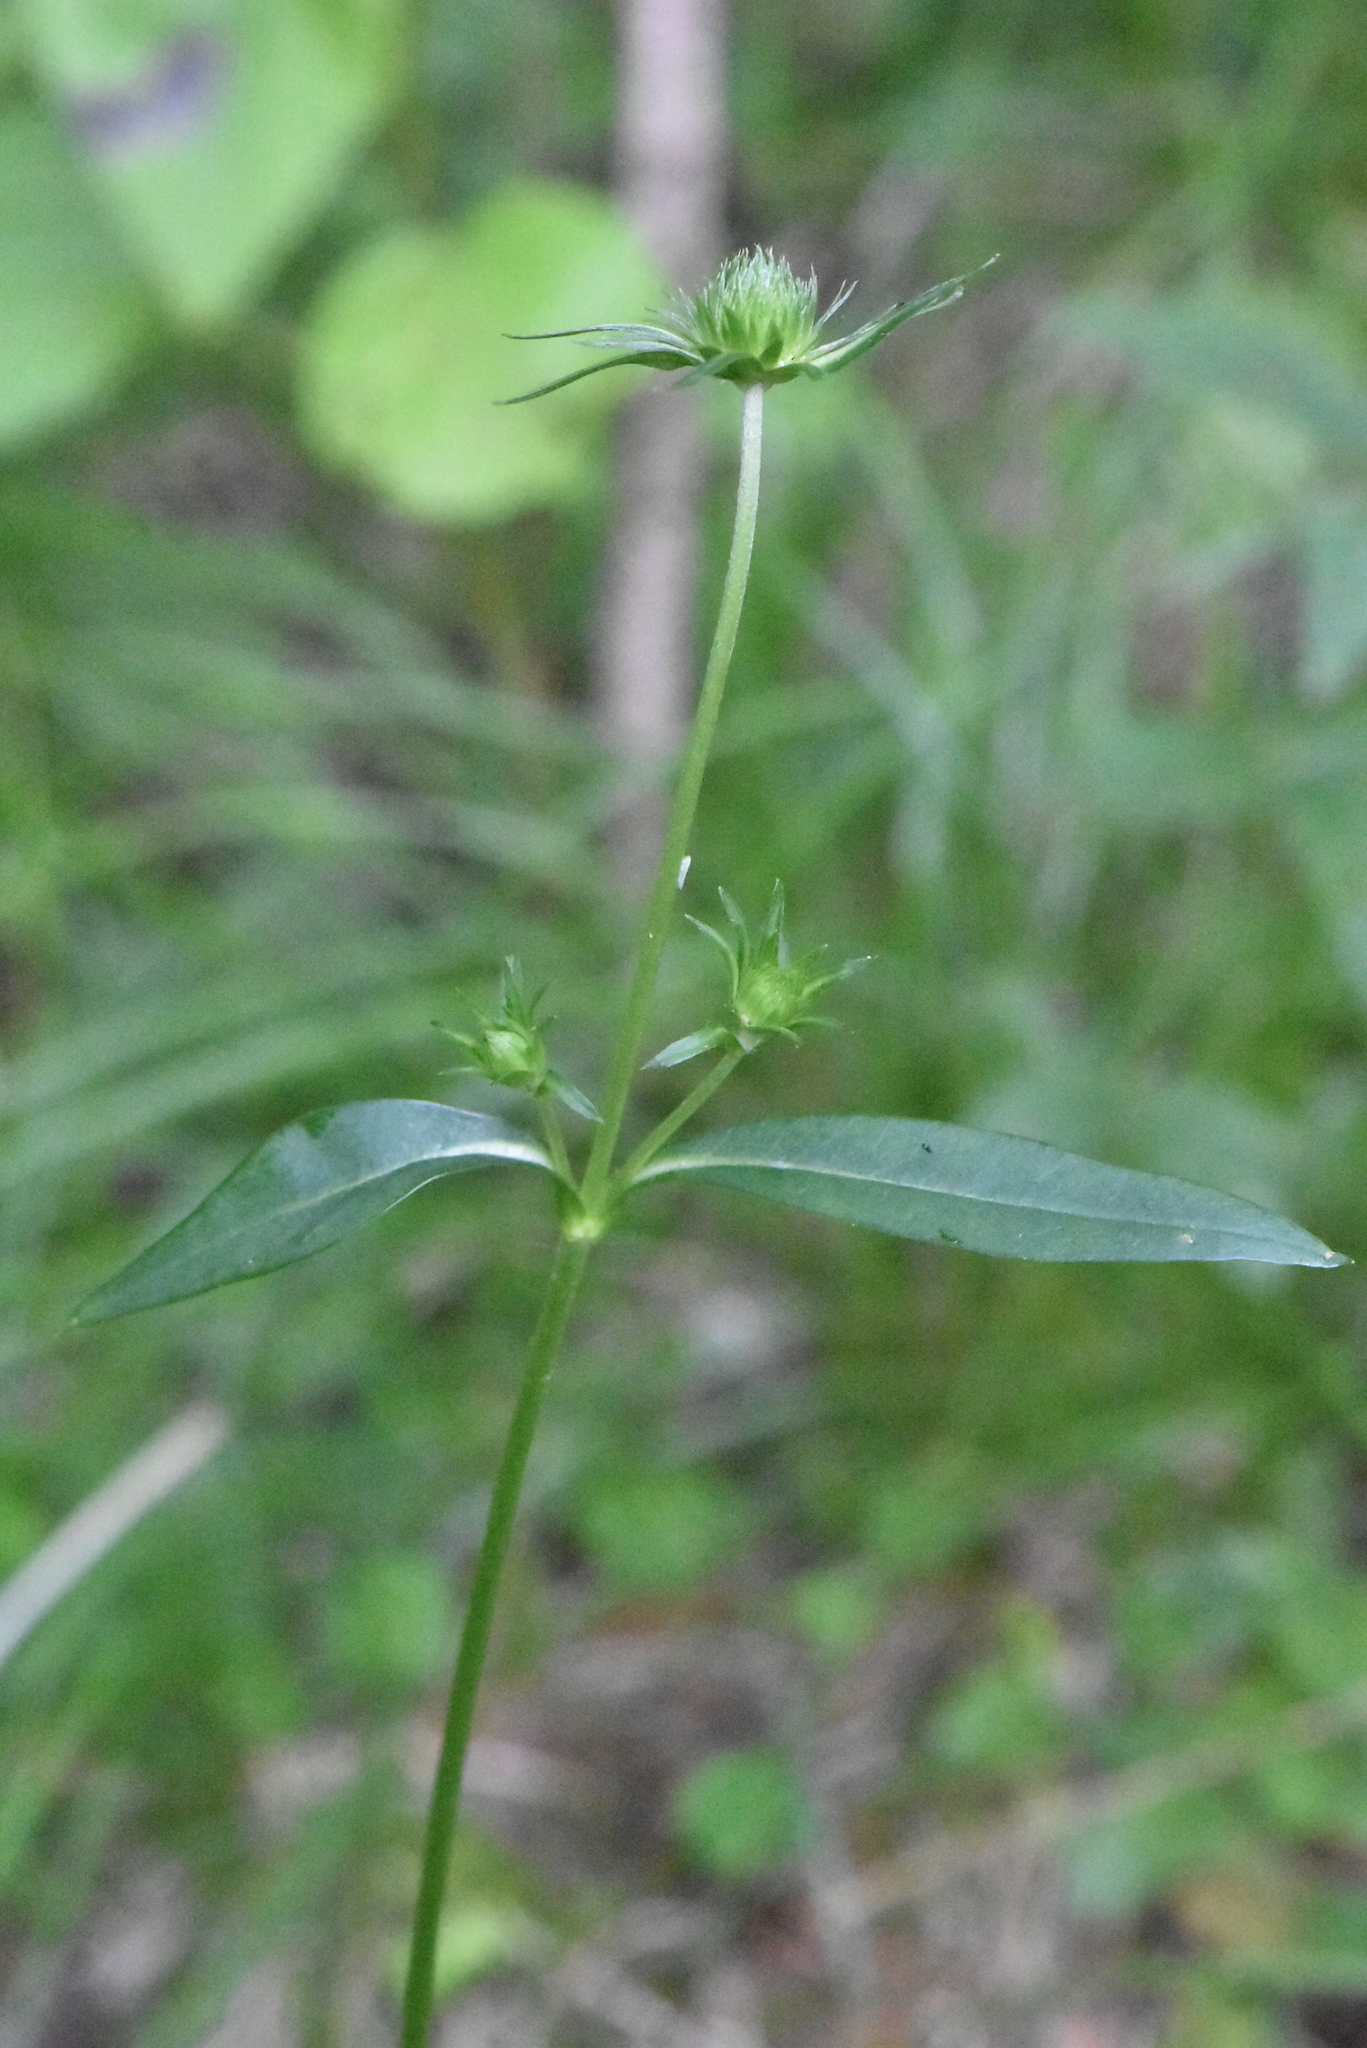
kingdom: Plantae
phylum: Tracheophyta
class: Magnoliopsida
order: Dipsacales
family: Caprifoliaceae
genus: Succisa
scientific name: Succisa pratensis
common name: Devil's-bit
